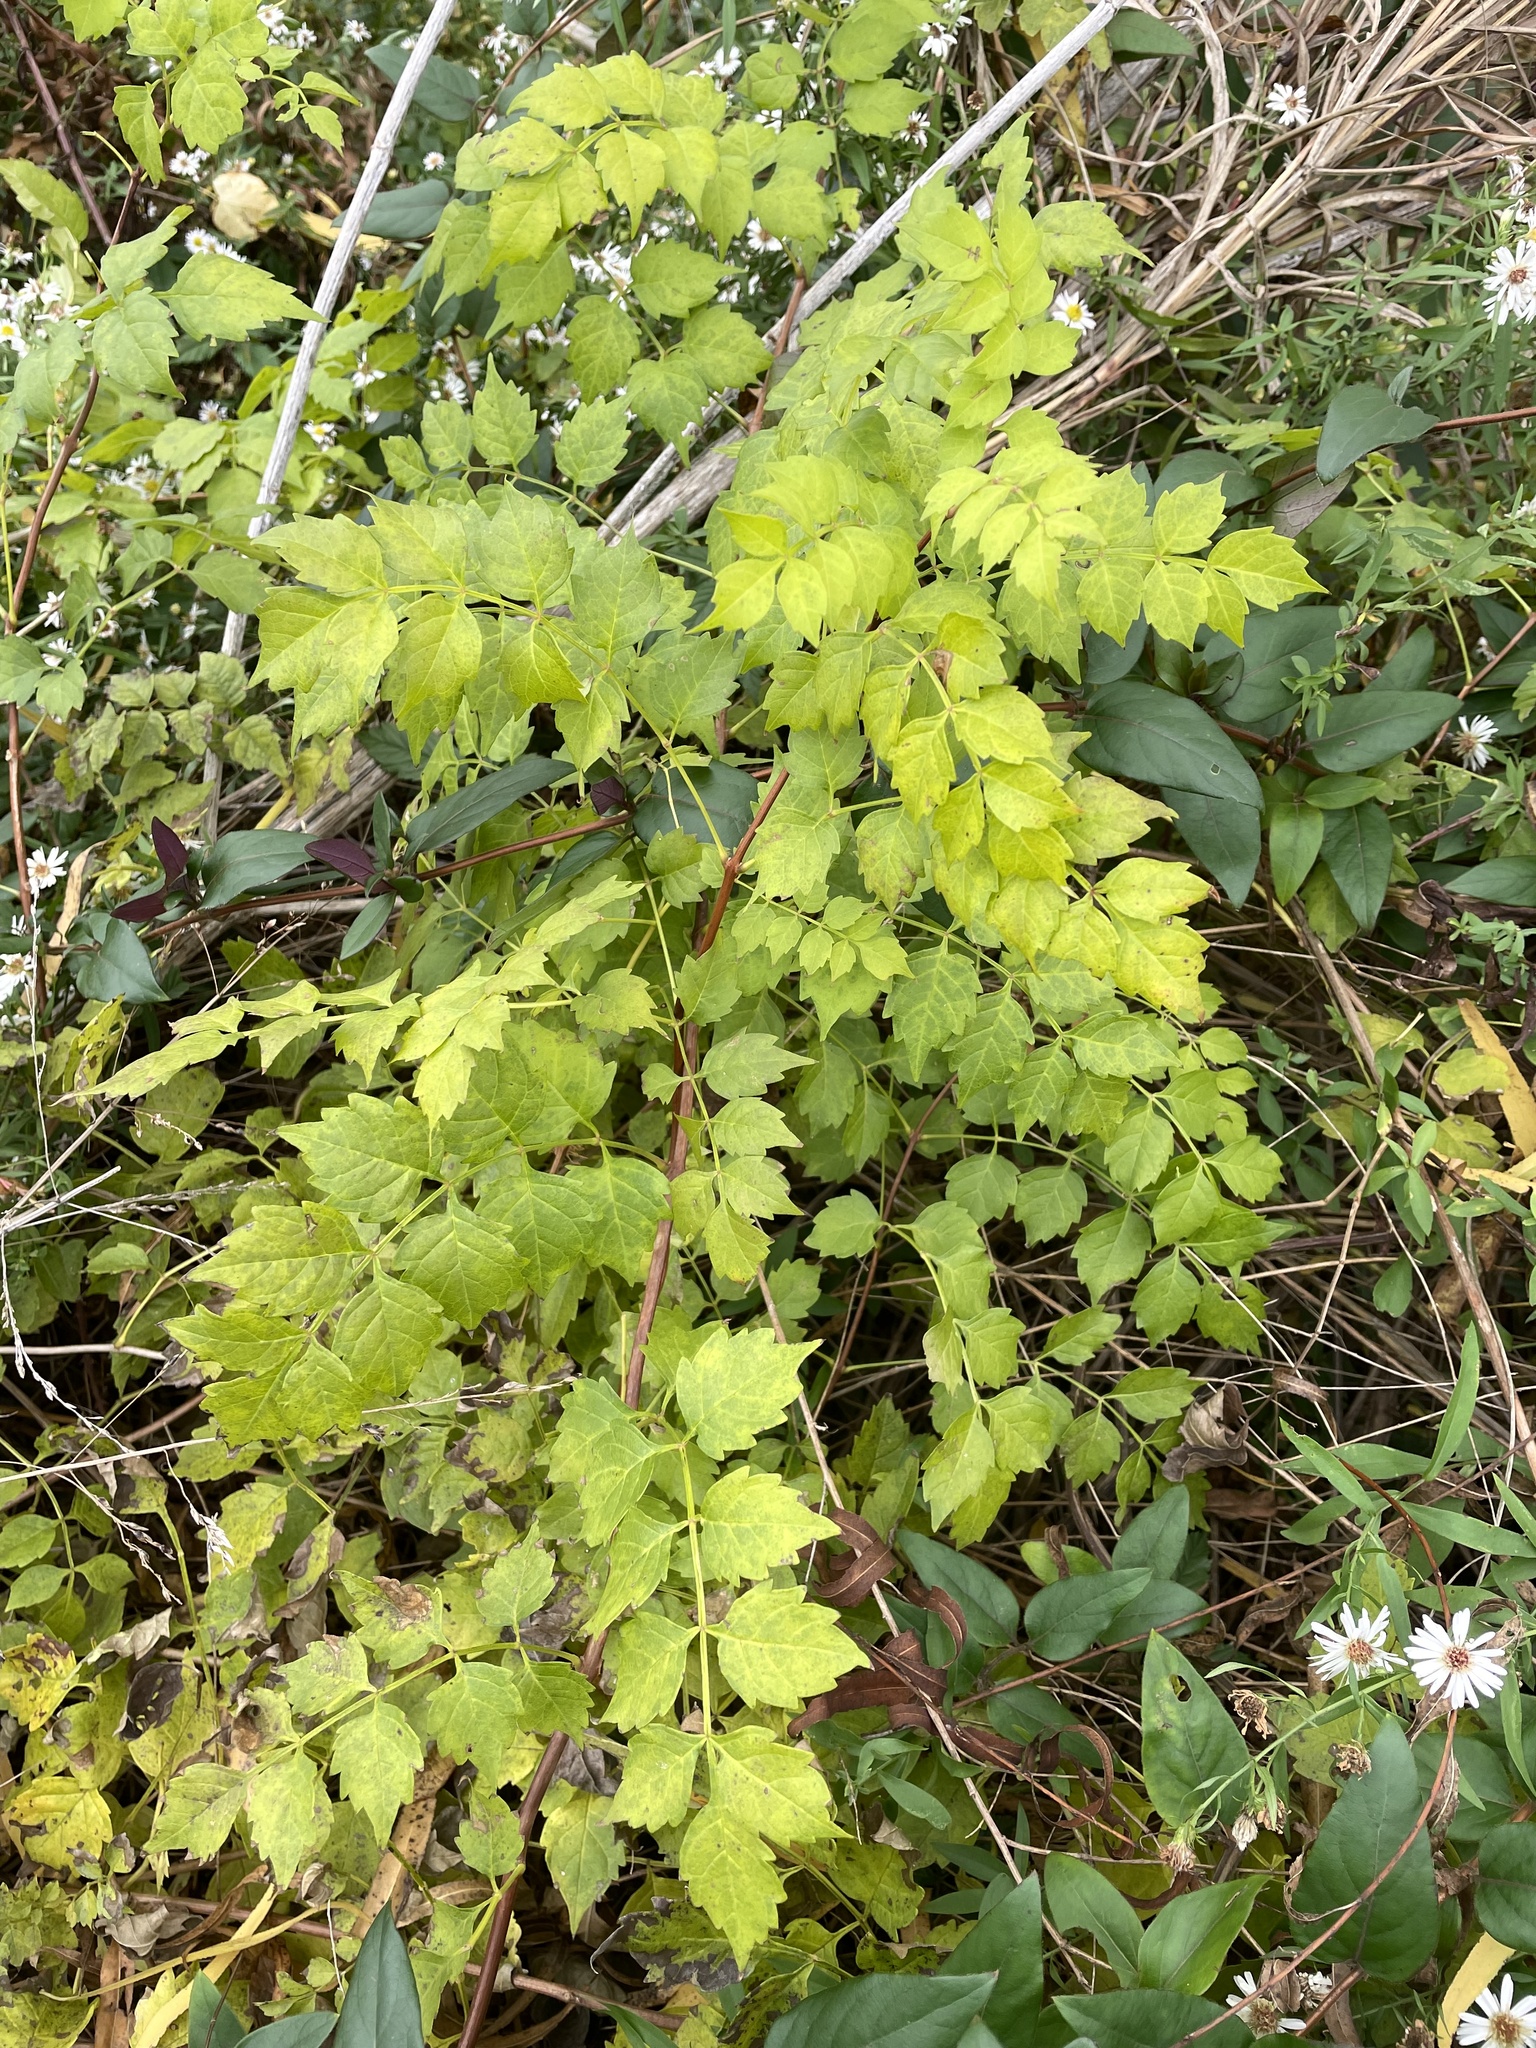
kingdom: Plantae
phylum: Tracheophyta
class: Magnoliopsida
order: Lamiales
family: Bignoniaceae
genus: Campsis
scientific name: Campsis radicans
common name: Trumpet-creeper
